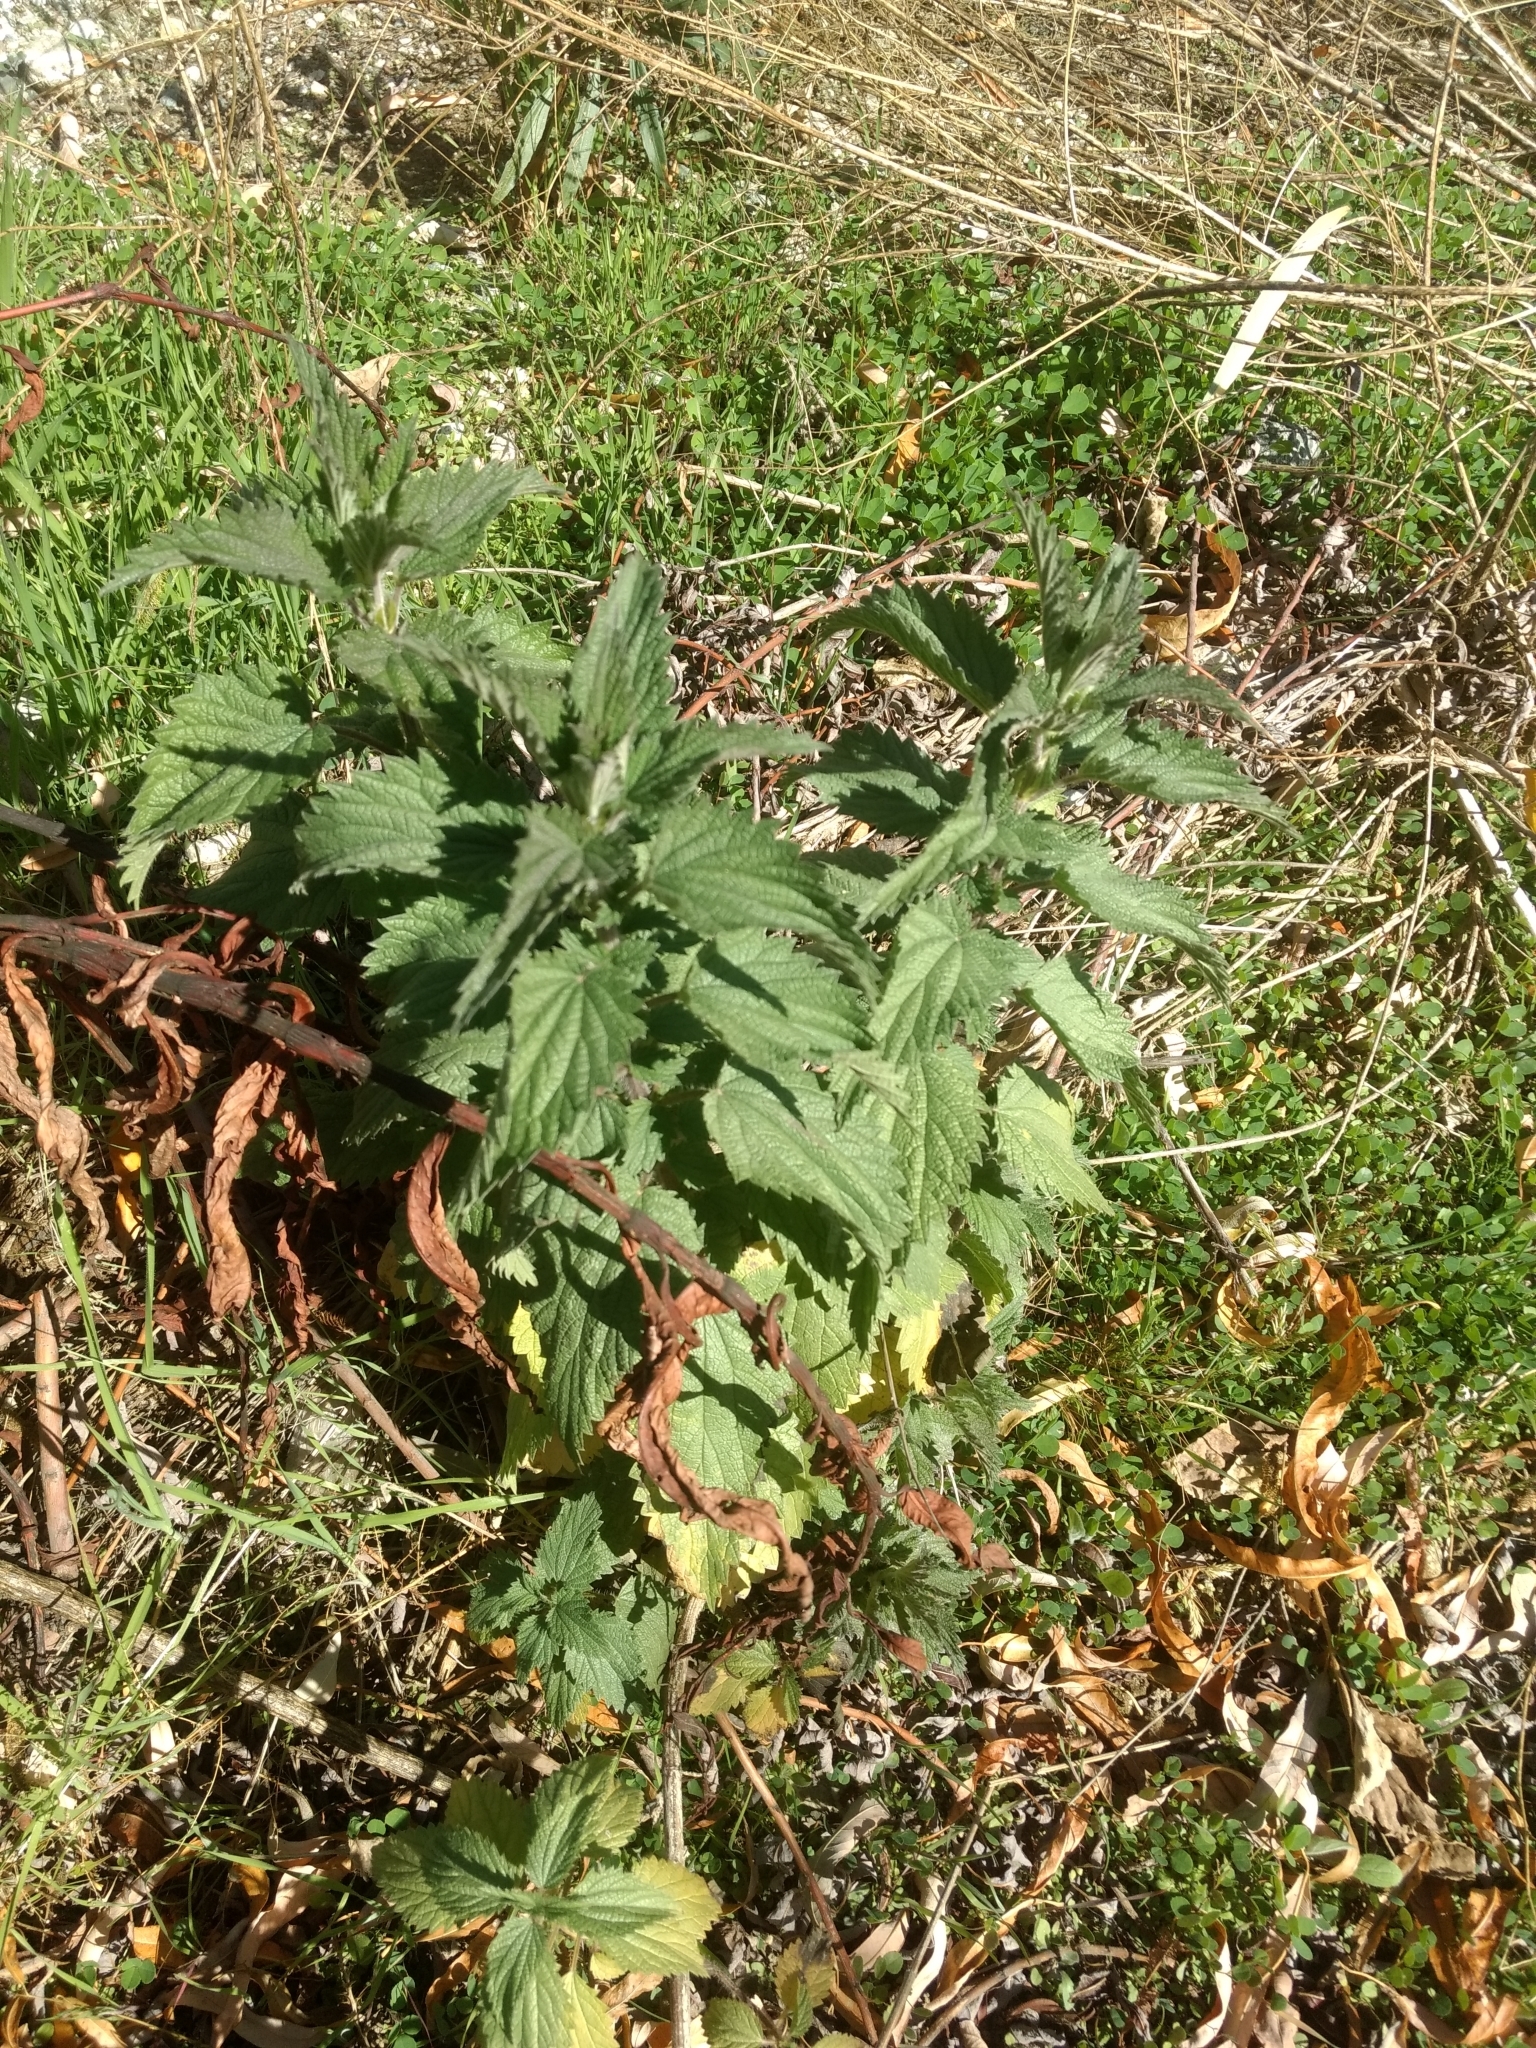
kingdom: Plantae
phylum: Tracheophyta
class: Magnoliopsida
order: Rosales
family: Urticaceae
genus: Urtica
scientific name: Urtica dioica
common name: Common nettle
